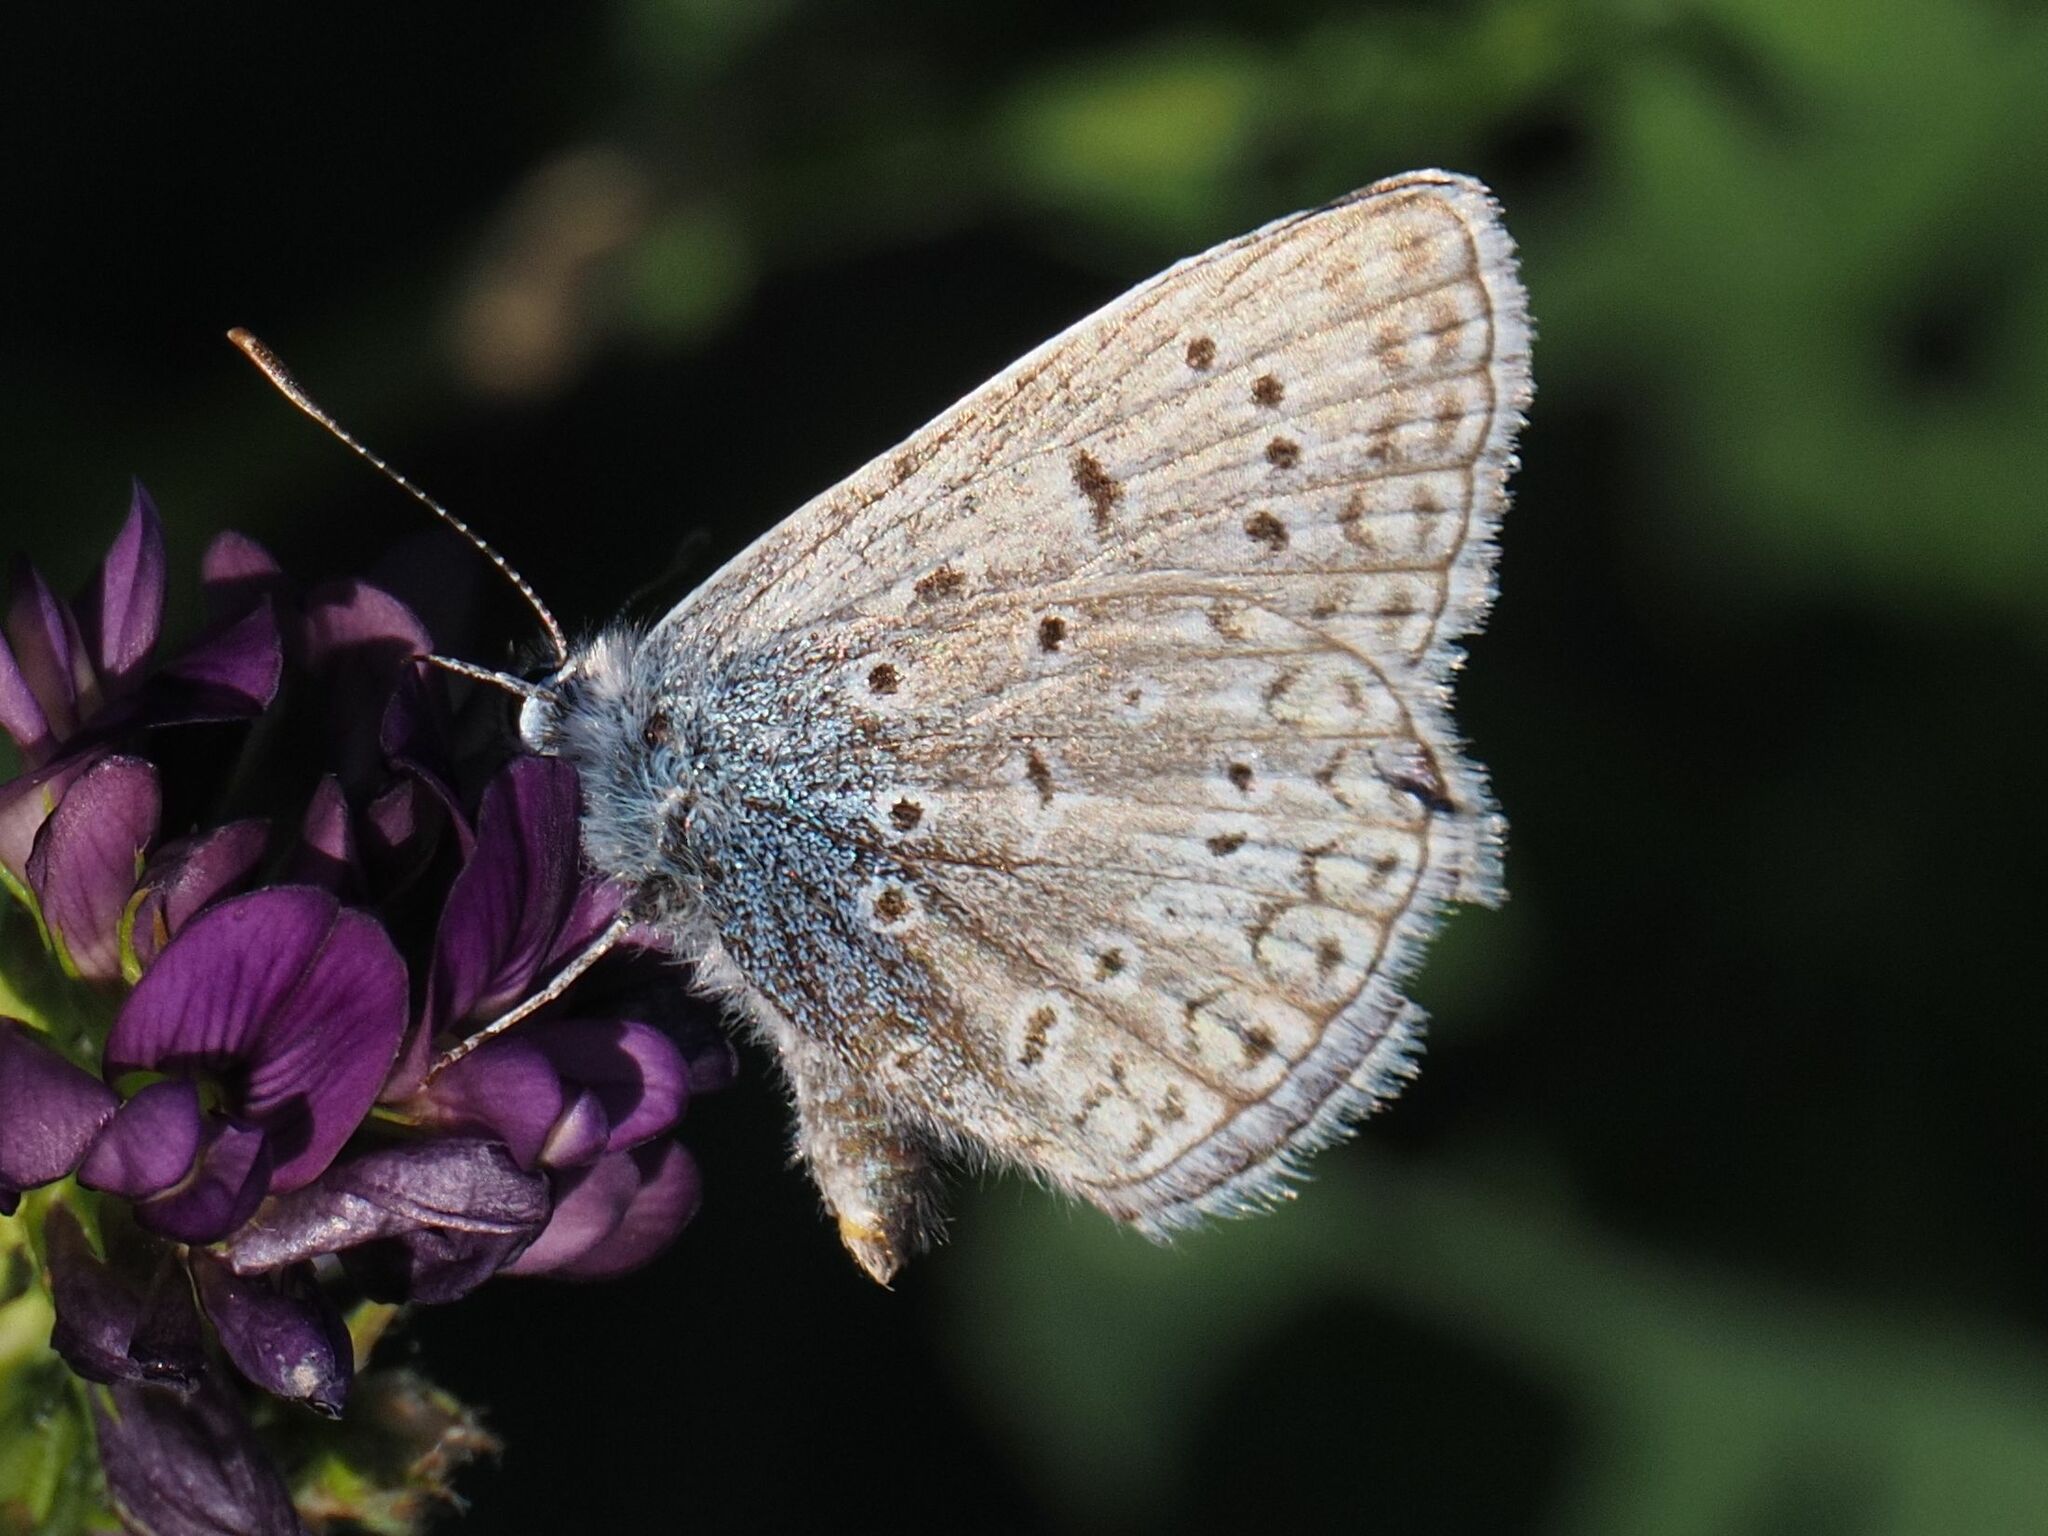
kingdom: Animalia
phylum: Arthropoda
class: Insecta
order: Lepidoptera
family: Lycaenidae
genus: Polyommatus
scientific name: Polyommatus icarus
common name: Common blue
